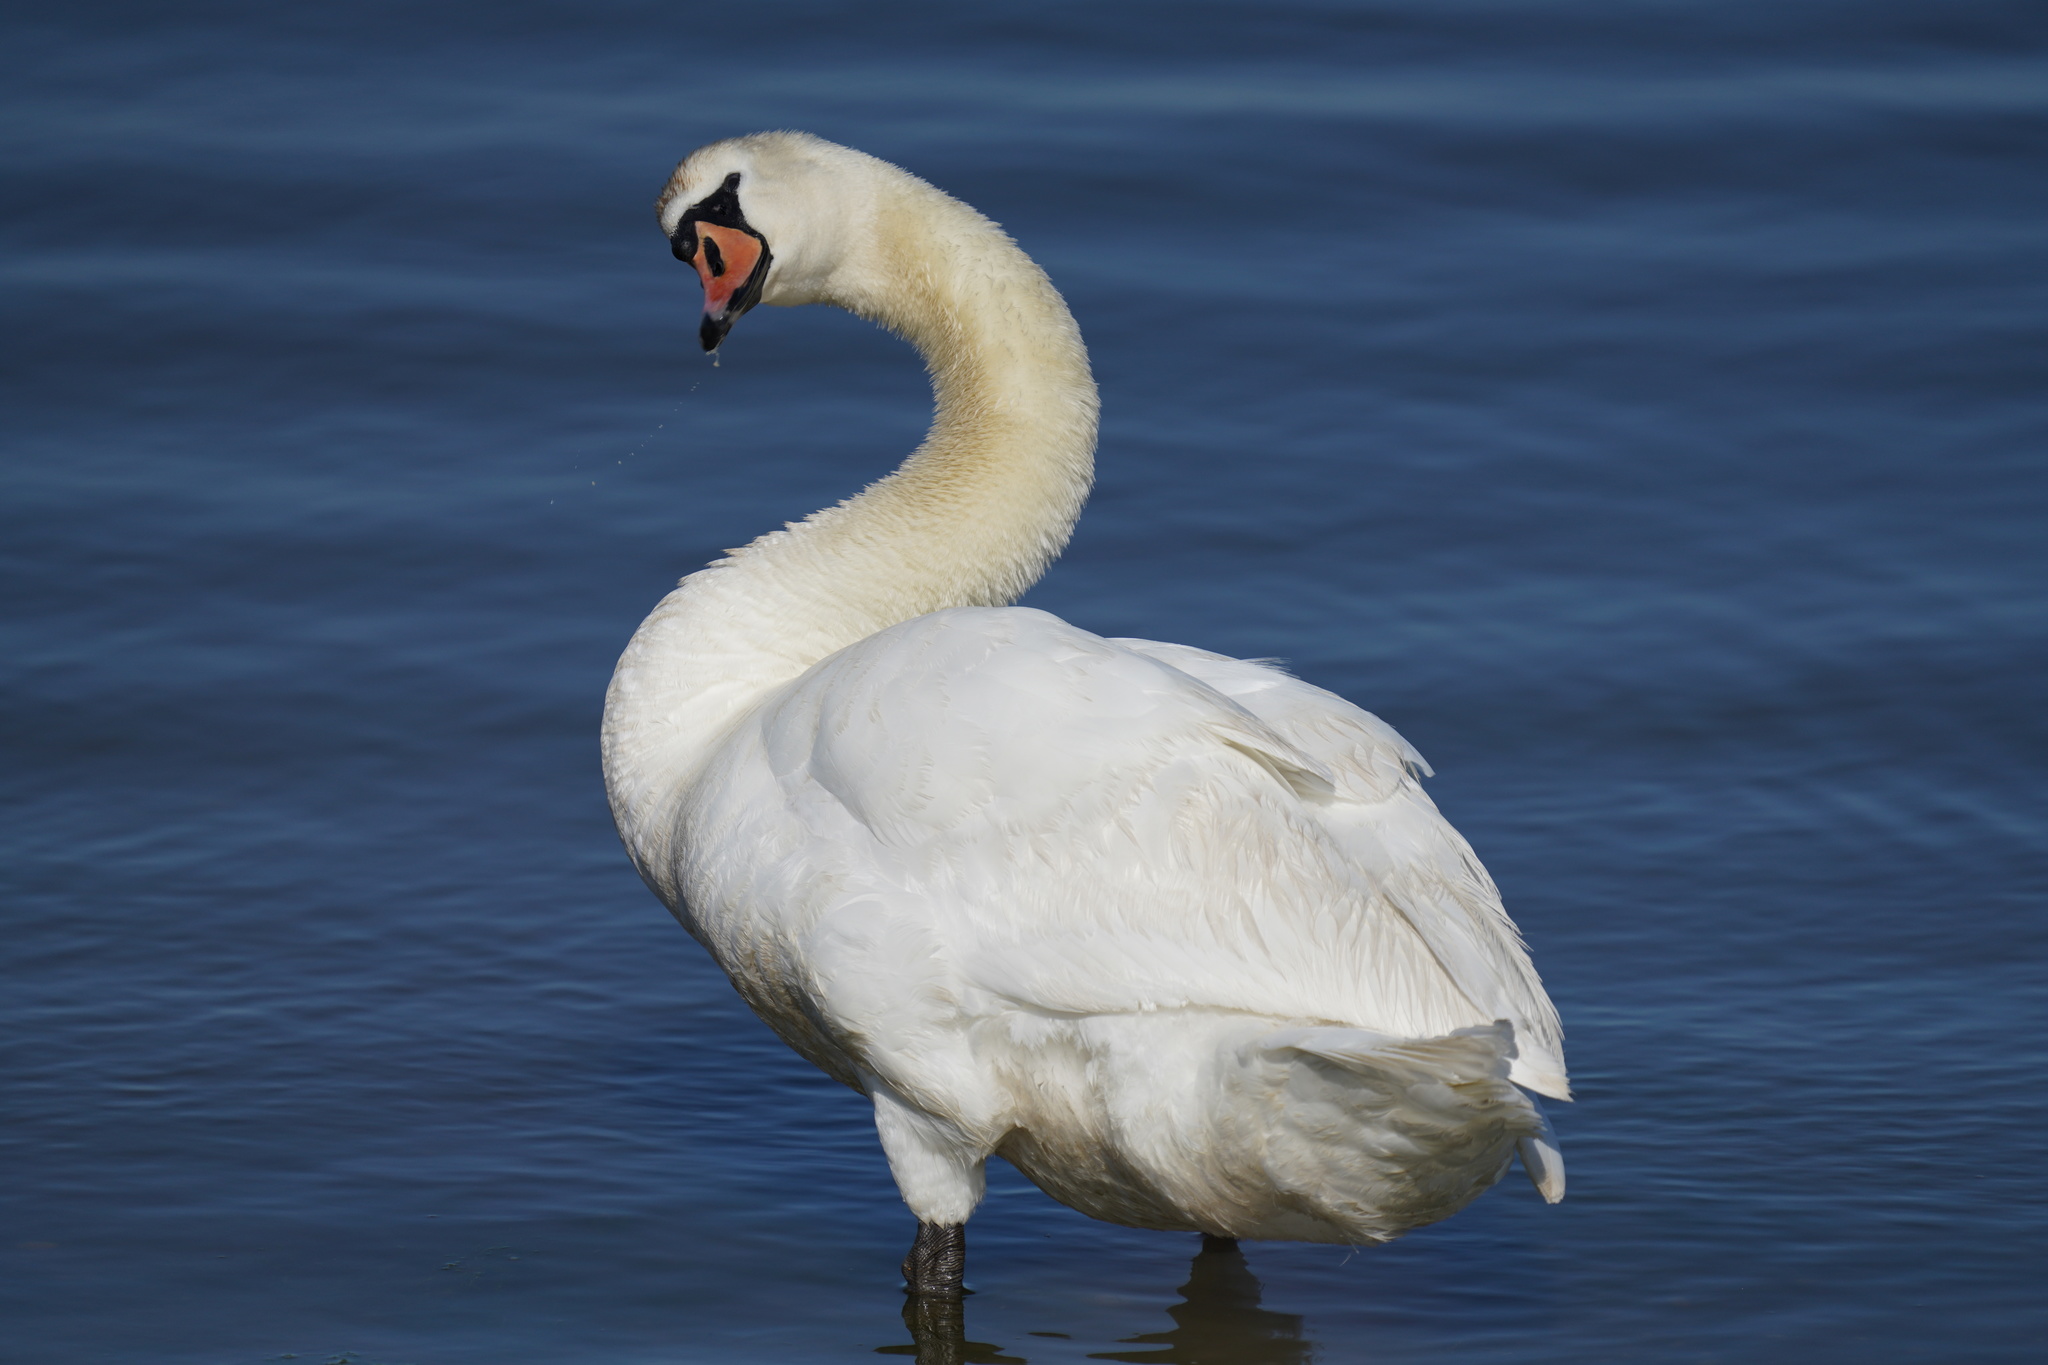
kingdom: Animalia
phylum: Chordata
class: Aves
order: Anseriformes
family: Anatidae
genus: Cygnus
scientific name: Cygnus olor
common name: Mute swan
